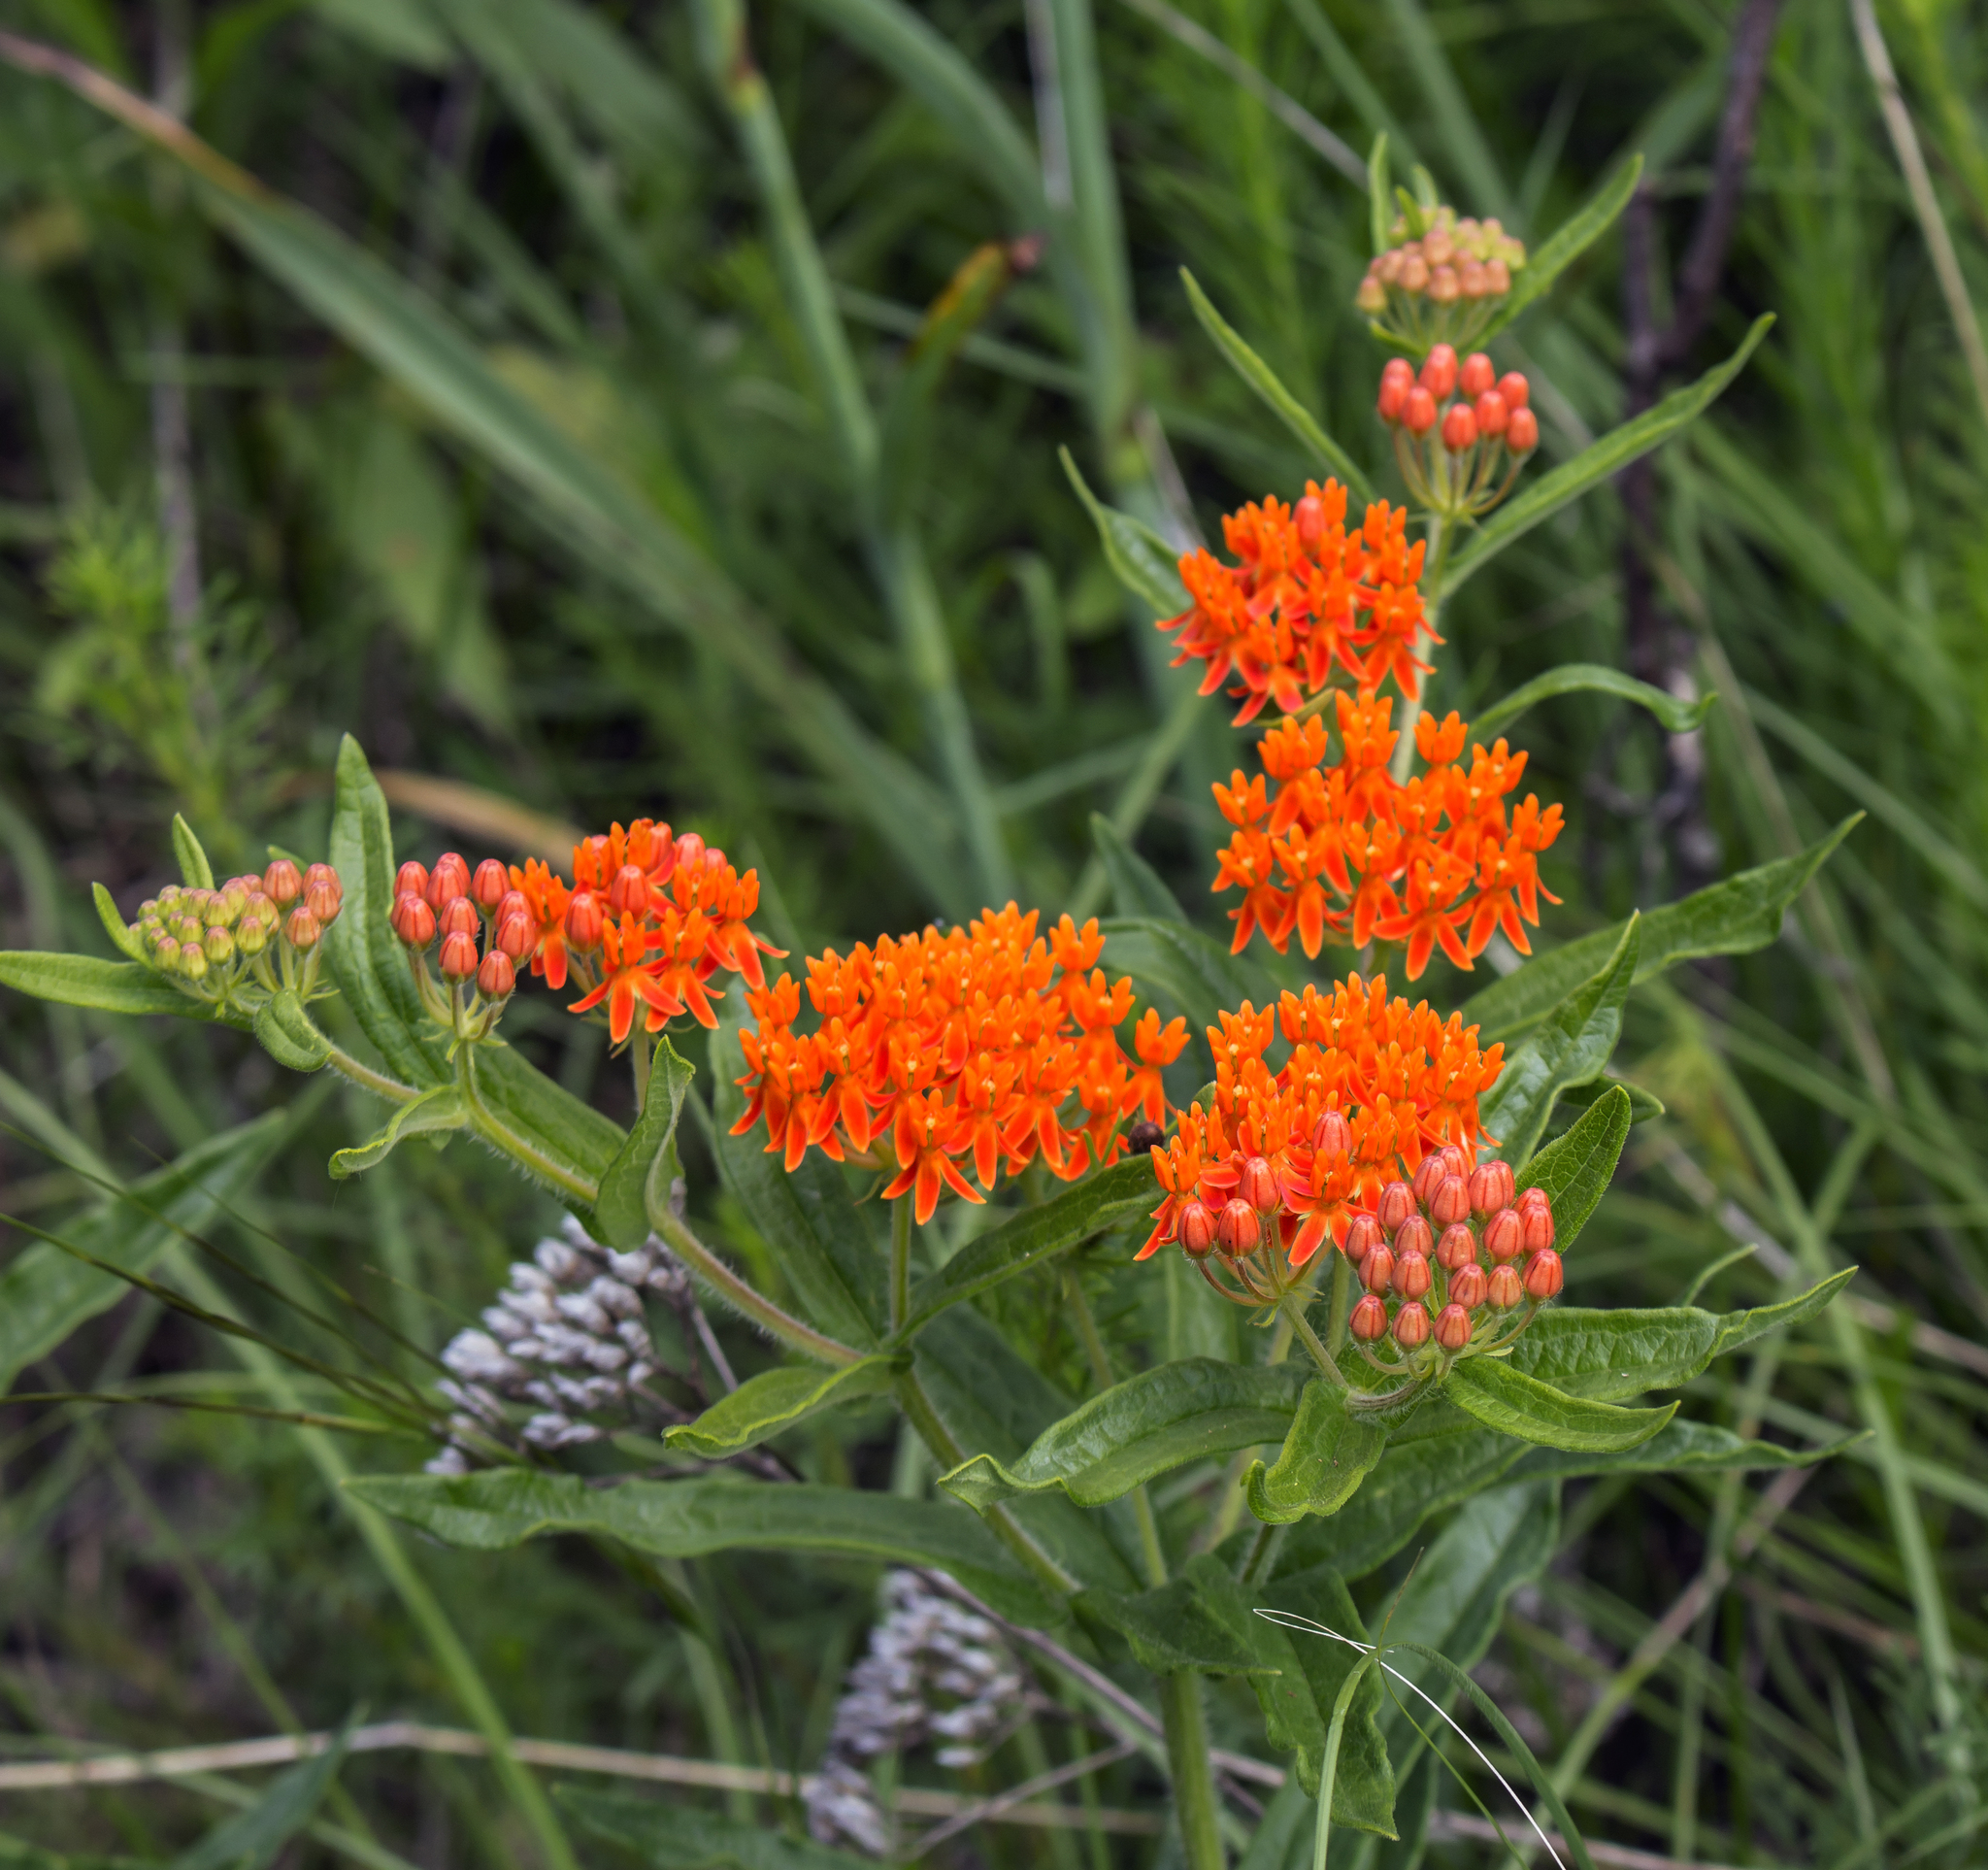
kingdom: Plantae
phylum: Tracheophyta
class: Magnoliopsida
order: Gentianales
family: Apocynaceae
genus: Asclepias
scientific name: Asclepias tuberosa
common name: Butterfly milkweed
